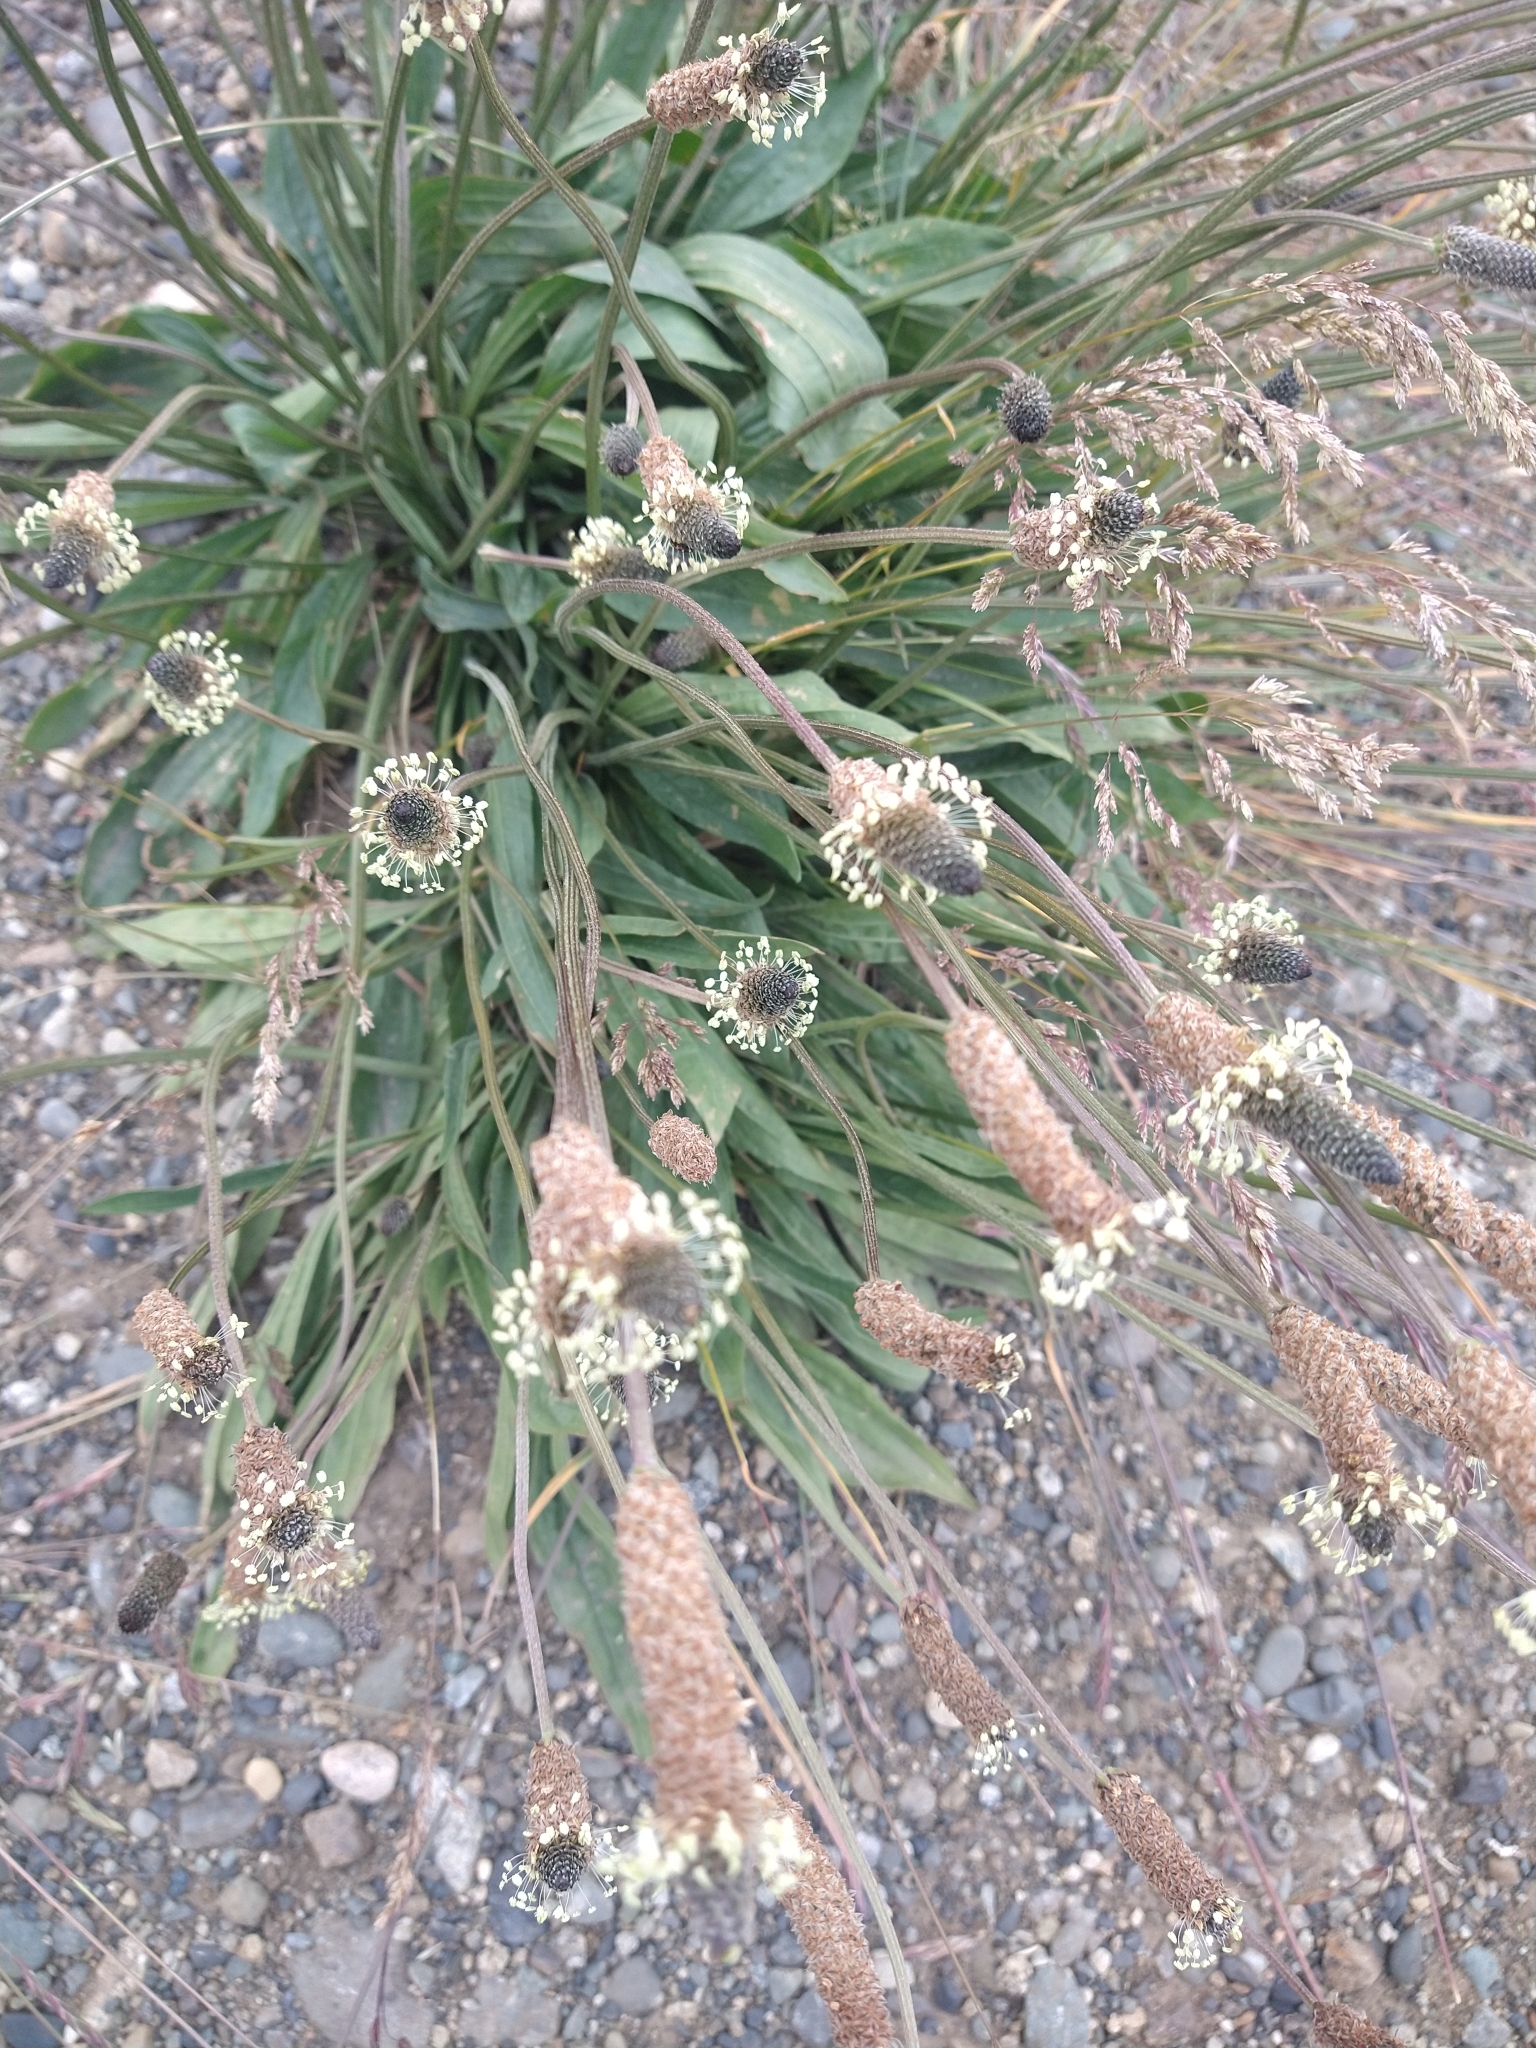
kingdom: Plantae
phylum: Tracheophyta
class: Magnoliopsida
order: Lamiales
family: Plantaginaceae
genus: Plantago
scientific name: Plantago lanceolata
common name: Ribwort plantain
